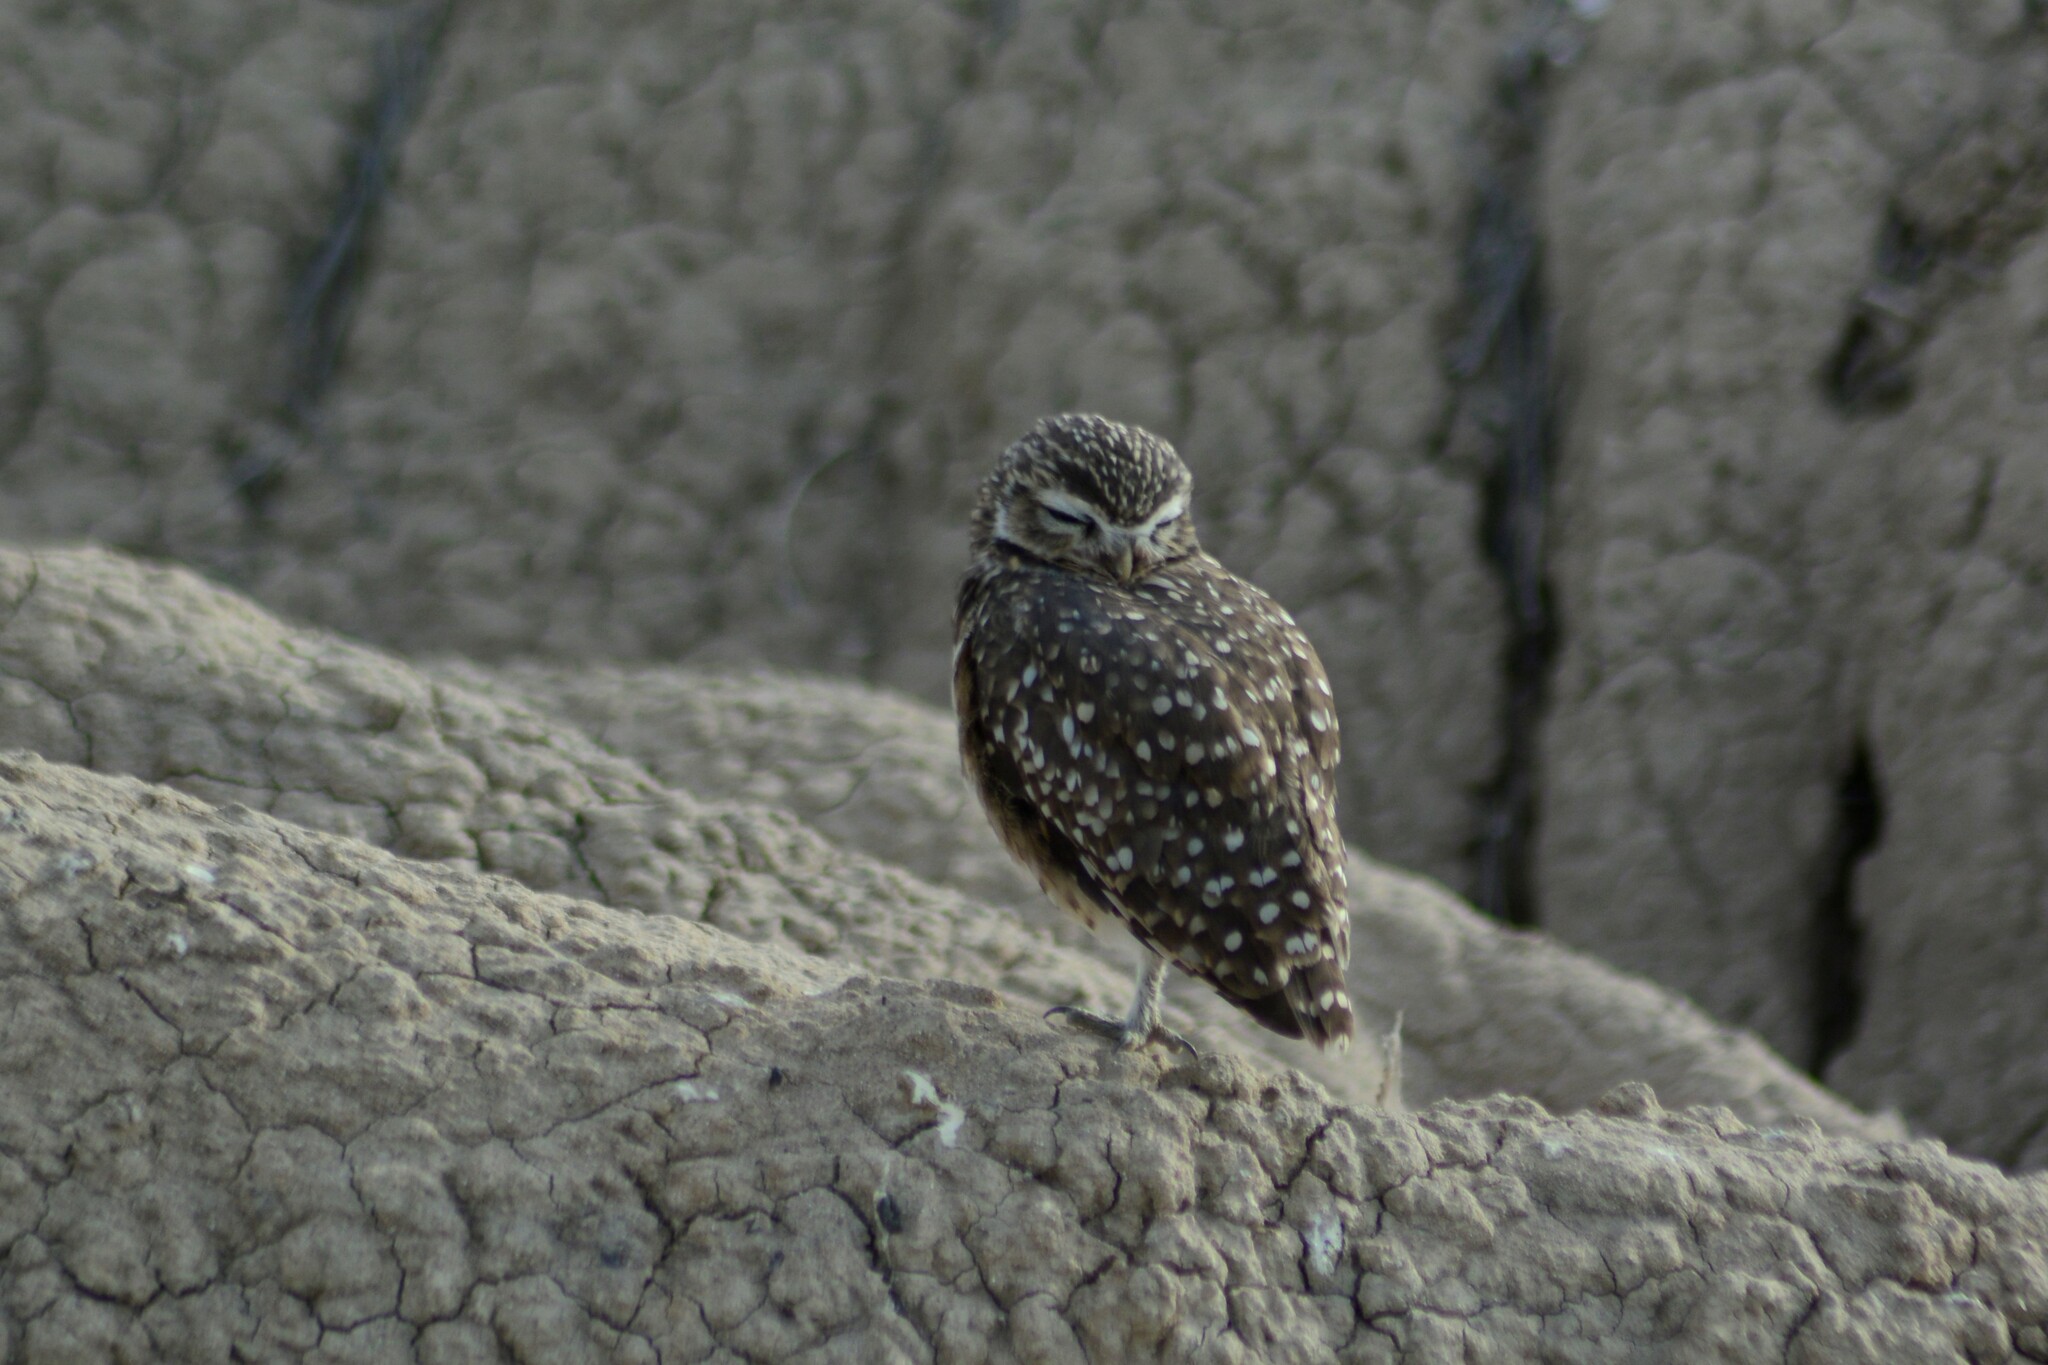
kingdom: Animalia
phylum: Chordata
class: Aves
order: Strigiformes
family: Strigidae
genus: Athene
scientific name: Athene cunicularia
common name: Burrowing owl
